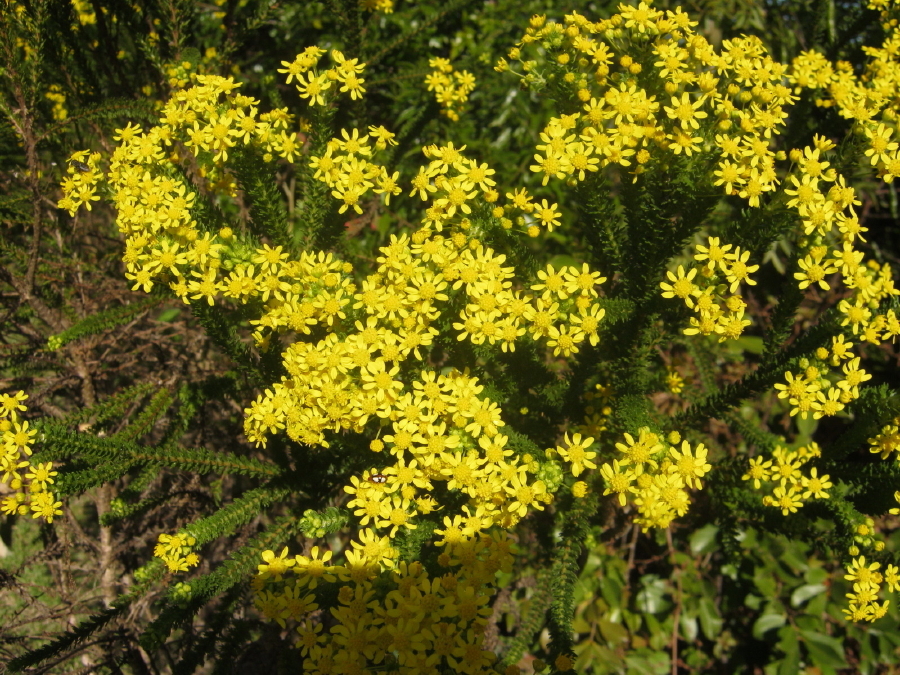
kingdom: Plantae
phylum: Tracheophyta
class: Magnoliopsida
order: Asterales
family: Asteraceae
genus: Euryops
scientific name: Euryops virgineus
